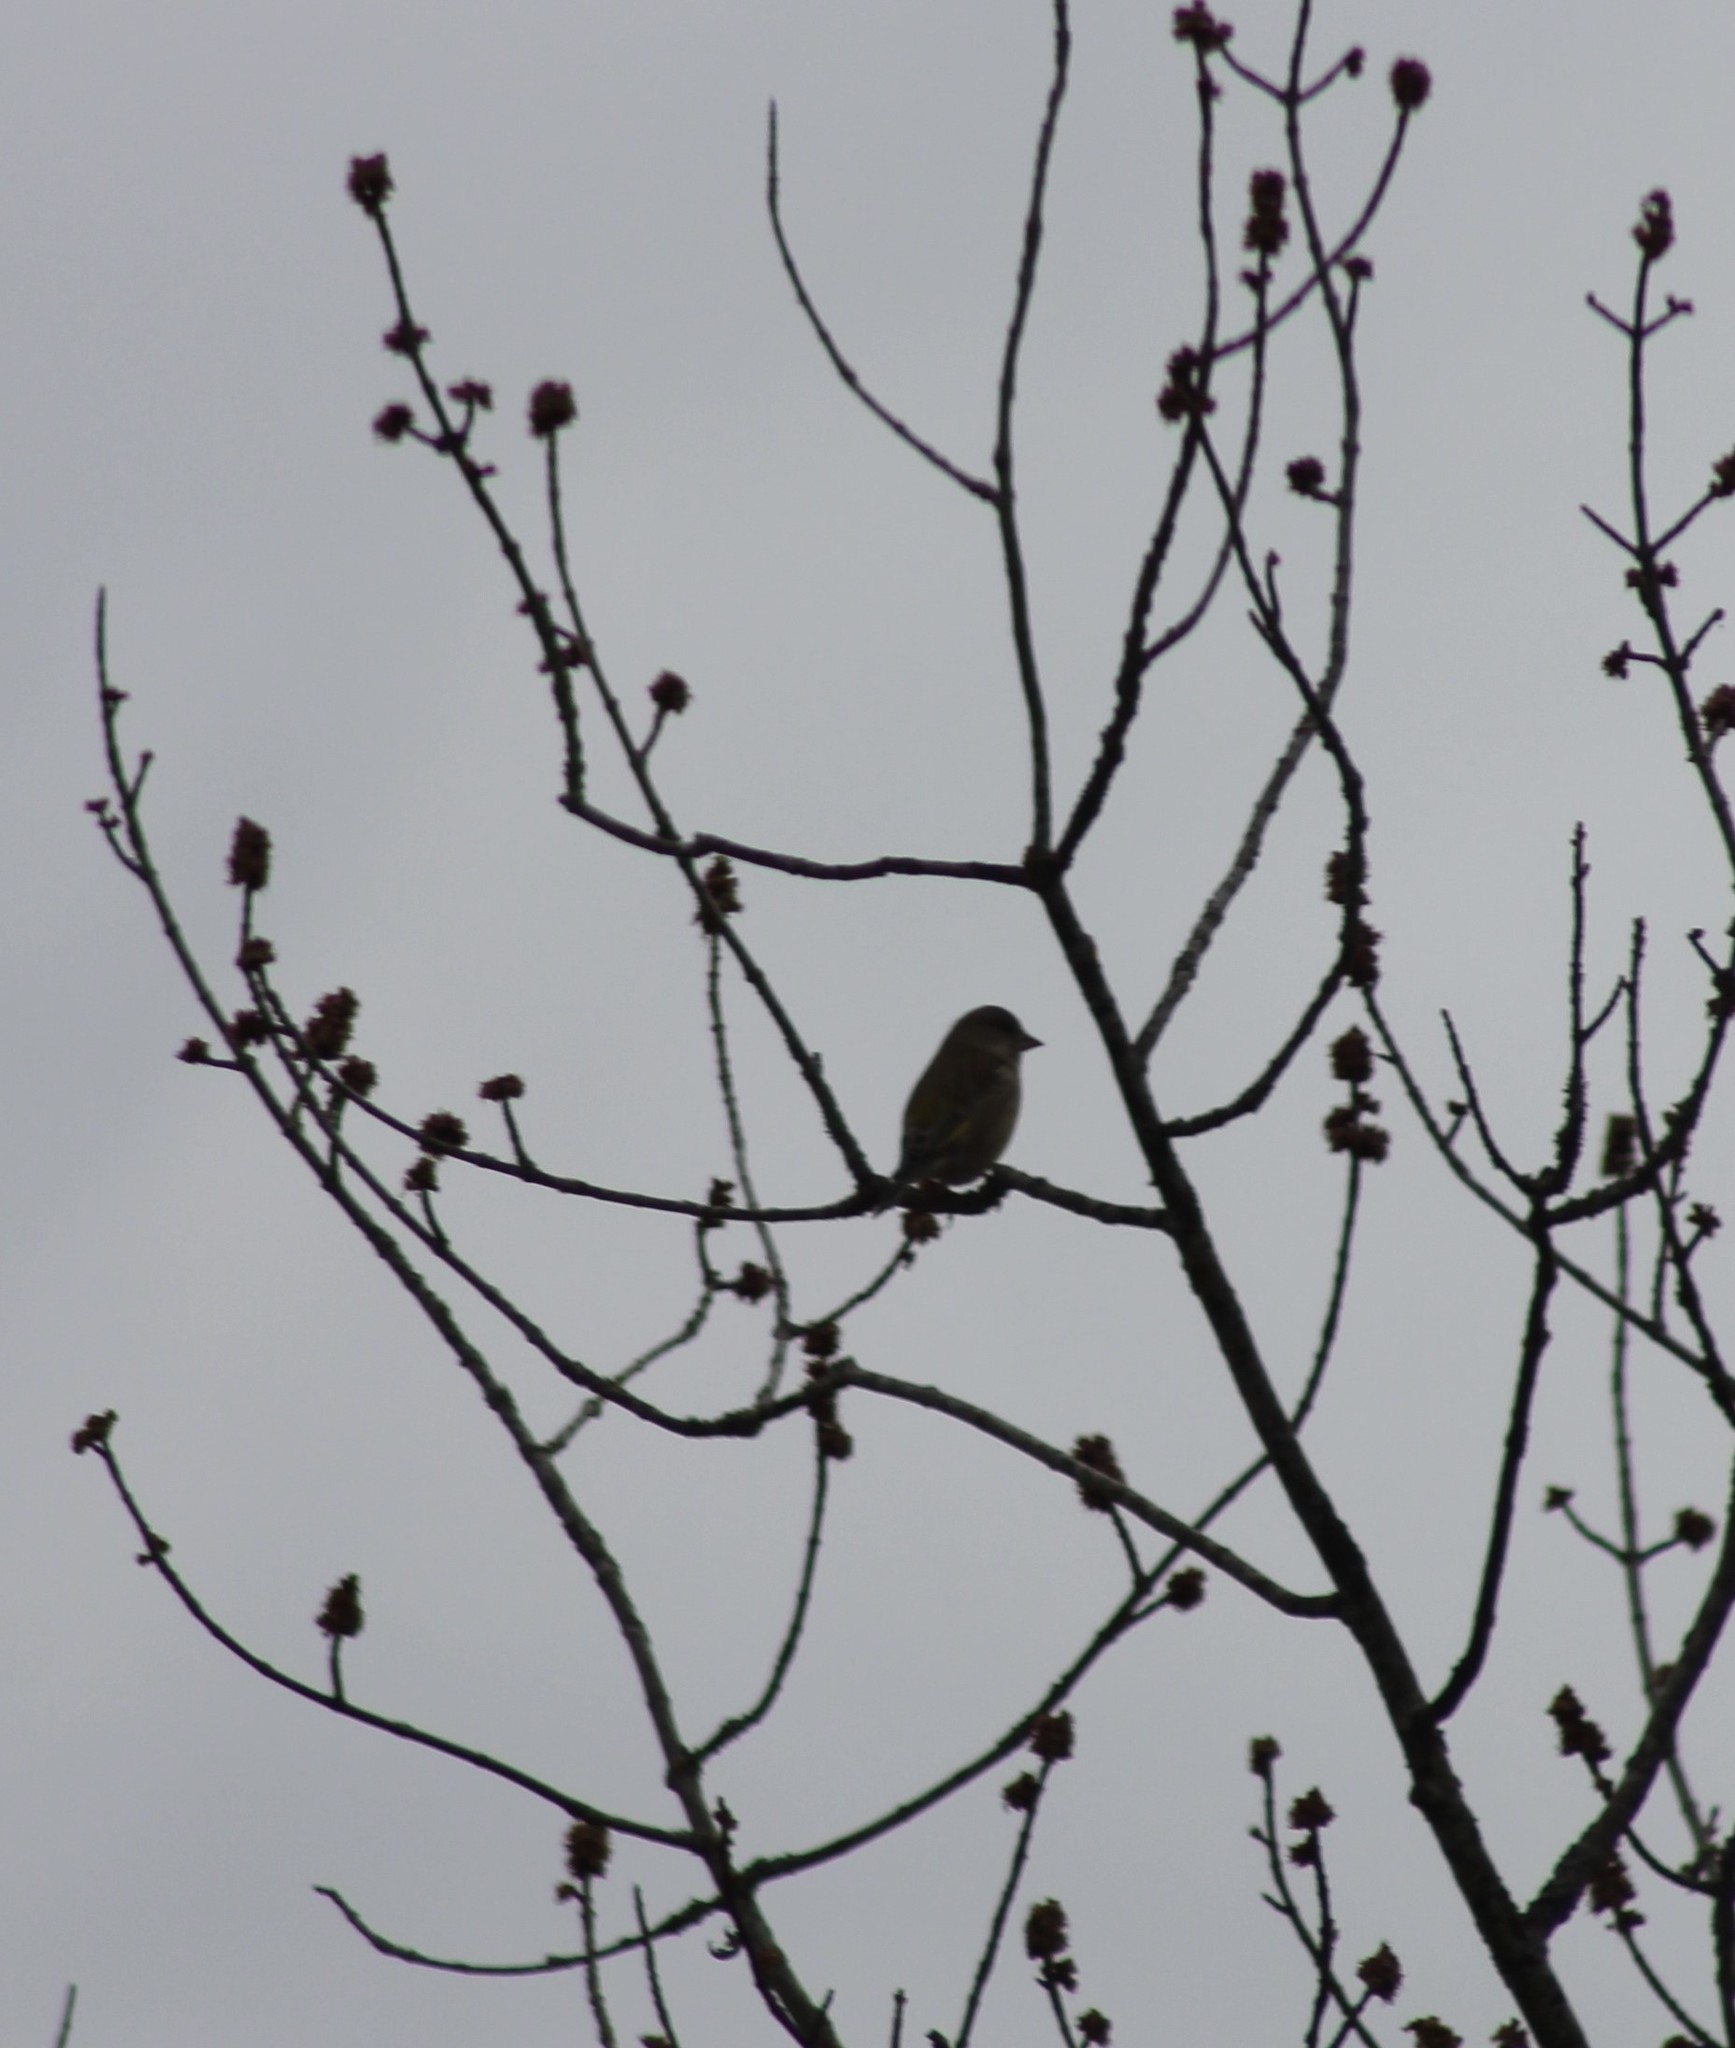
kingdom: Plantae
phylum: Tracheophyta
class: Liliopsida
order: Poales
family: Poaceae
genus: Chloris
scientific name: Chloris chloris
